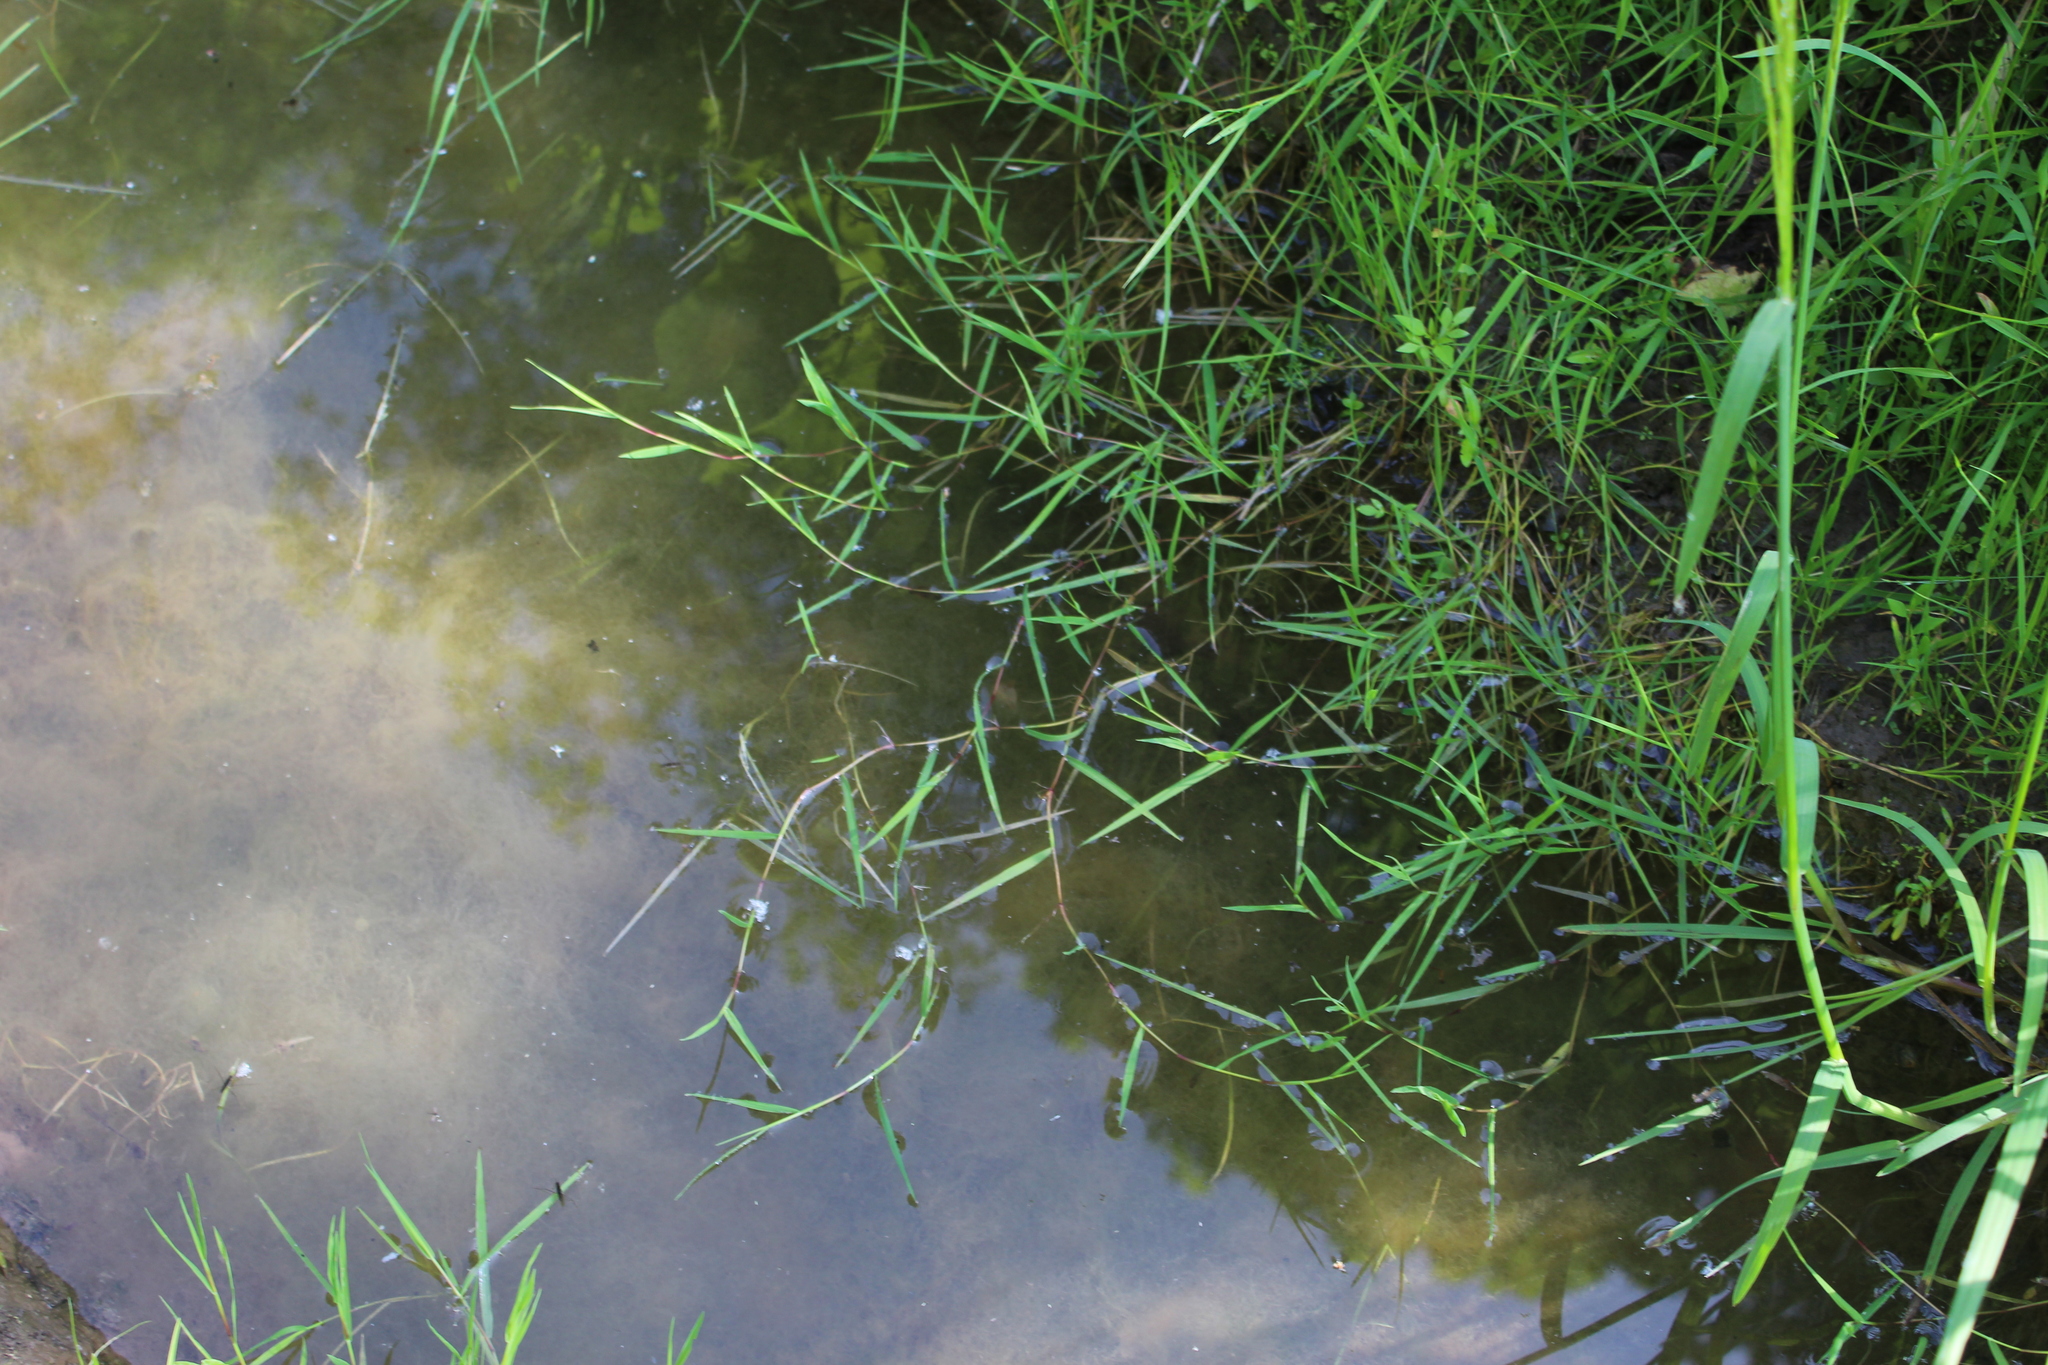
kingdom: Plantae
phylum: Tracheophyta
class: Liliopsida
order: Poales
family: Poaceae
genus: Agrostis
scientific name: Agrostis stolonifera
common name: Creeping bentgrass
